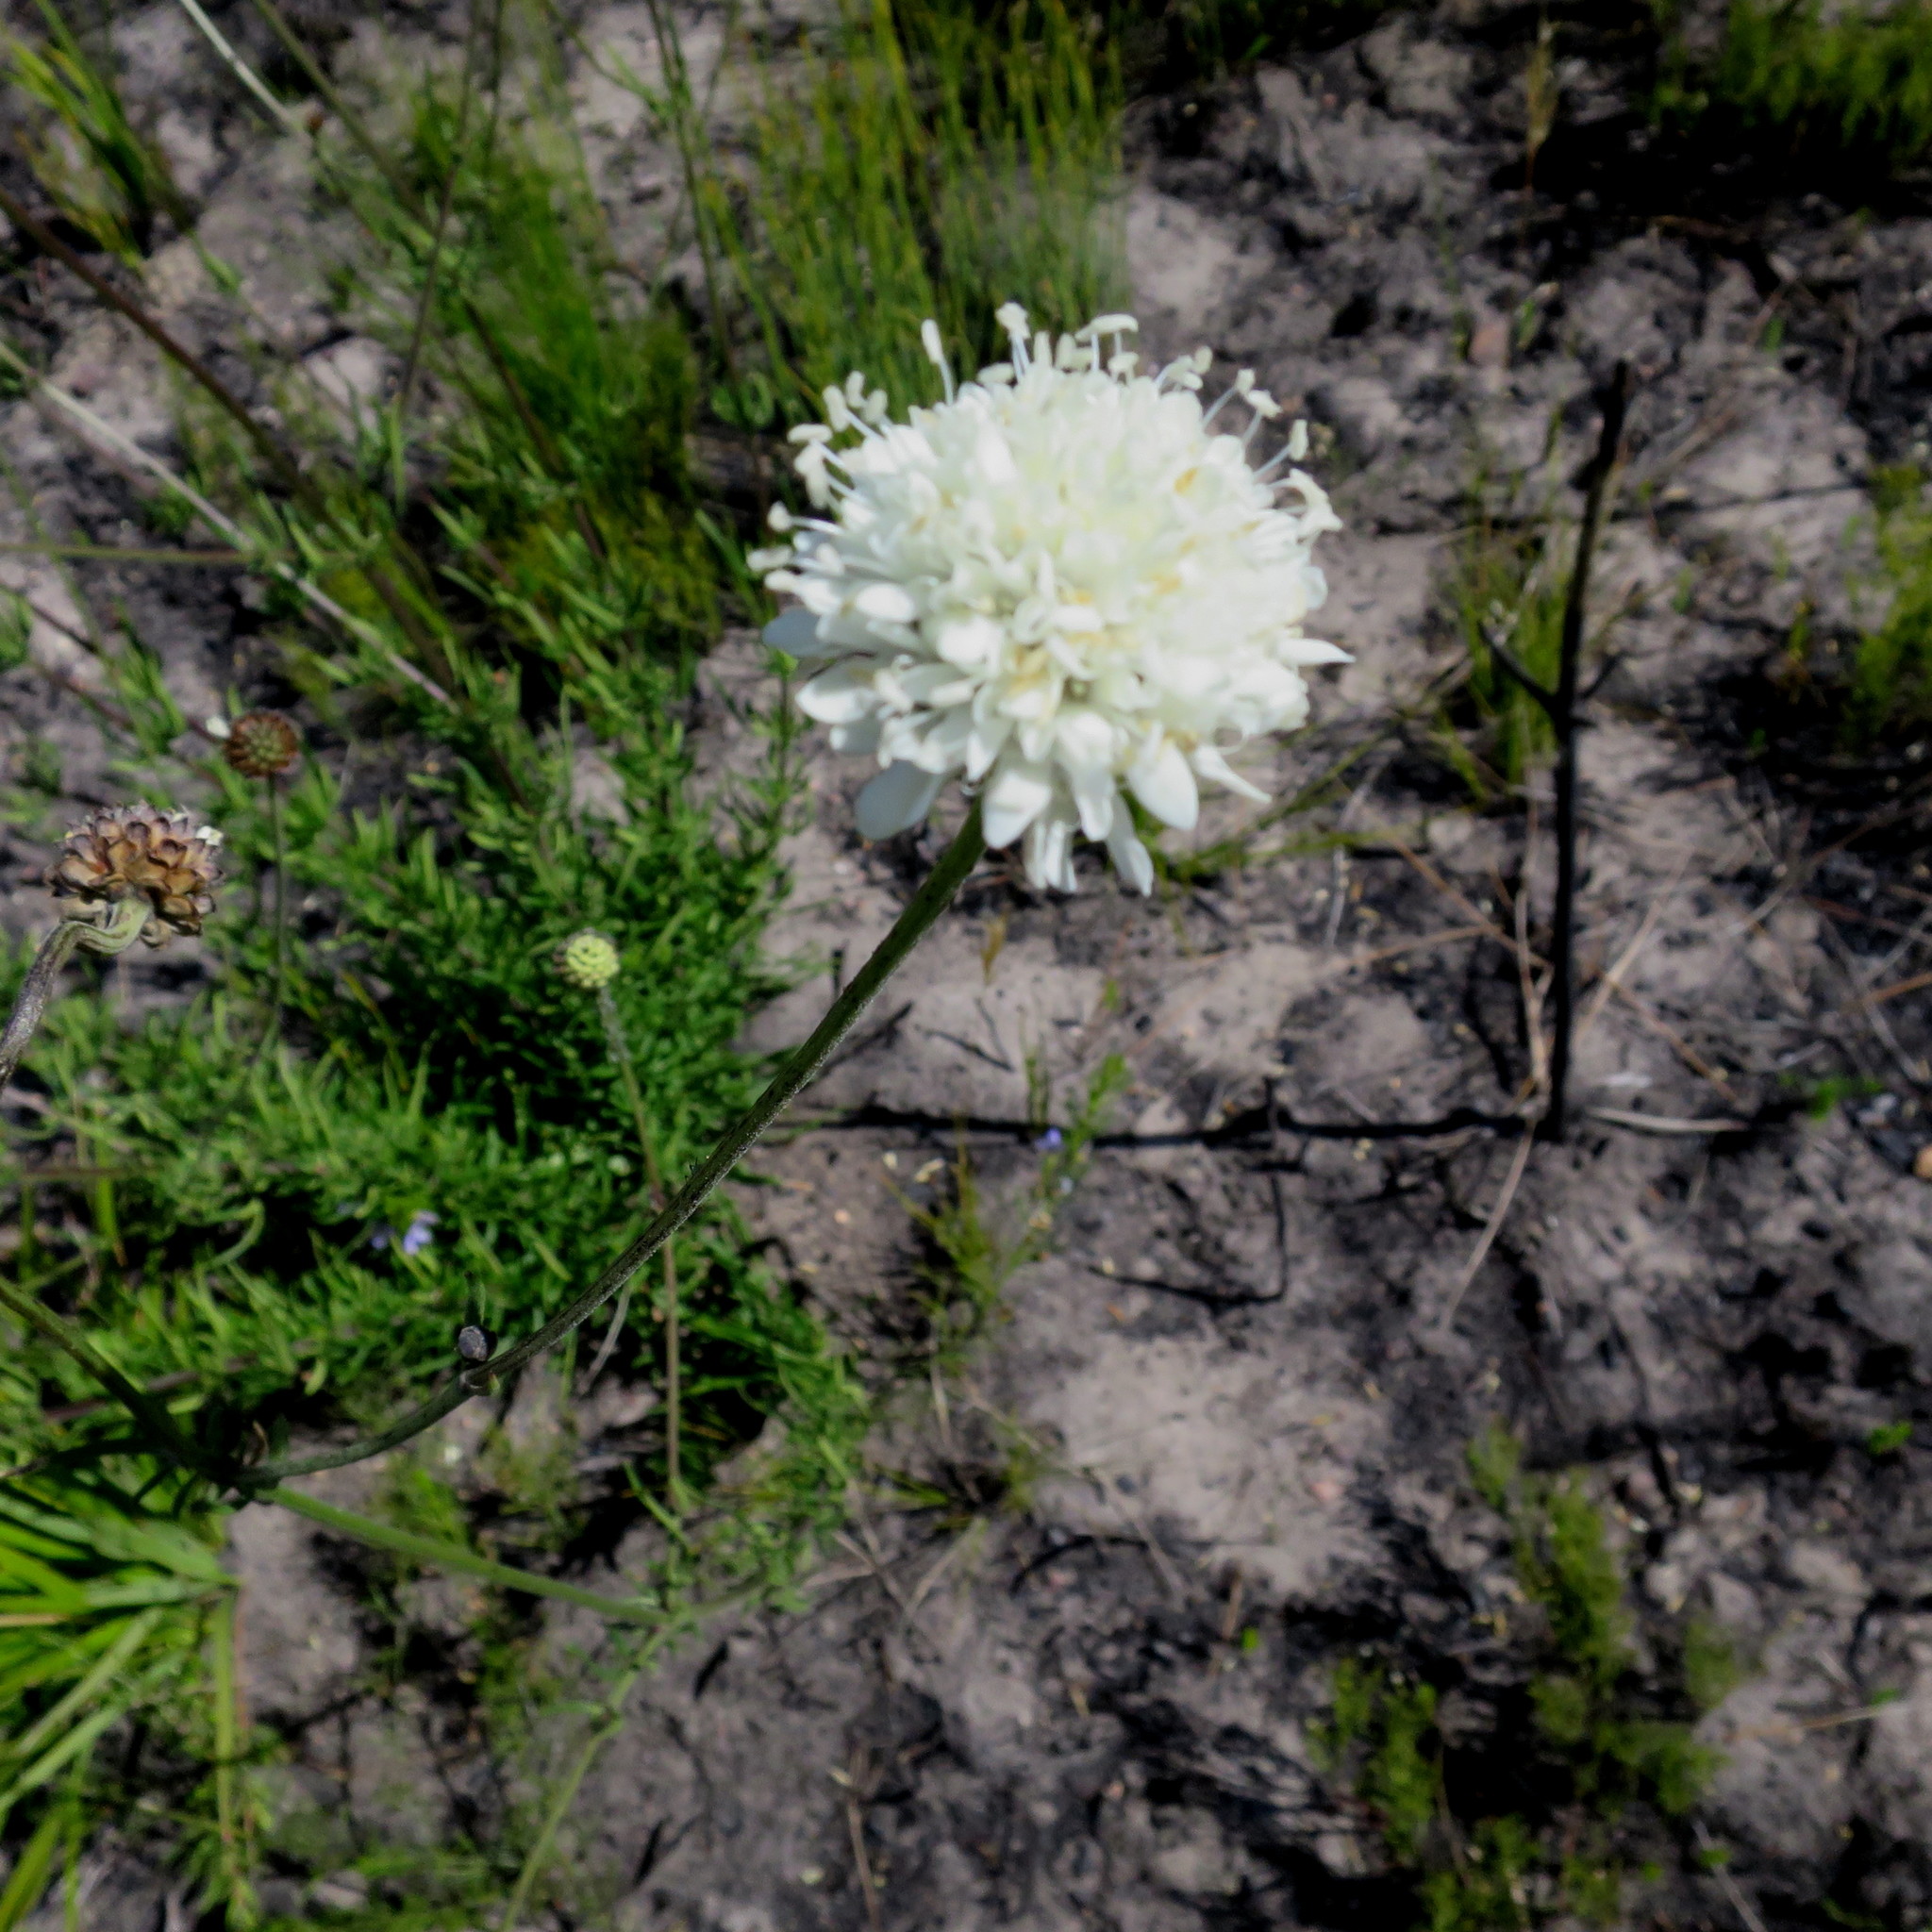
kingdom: Plantae
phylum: Tracheophyta
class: Magnoliopsida
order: Dipsacales
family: Caprifoliaceae
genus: Cephalaria
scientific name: Cephalaria attenuata
